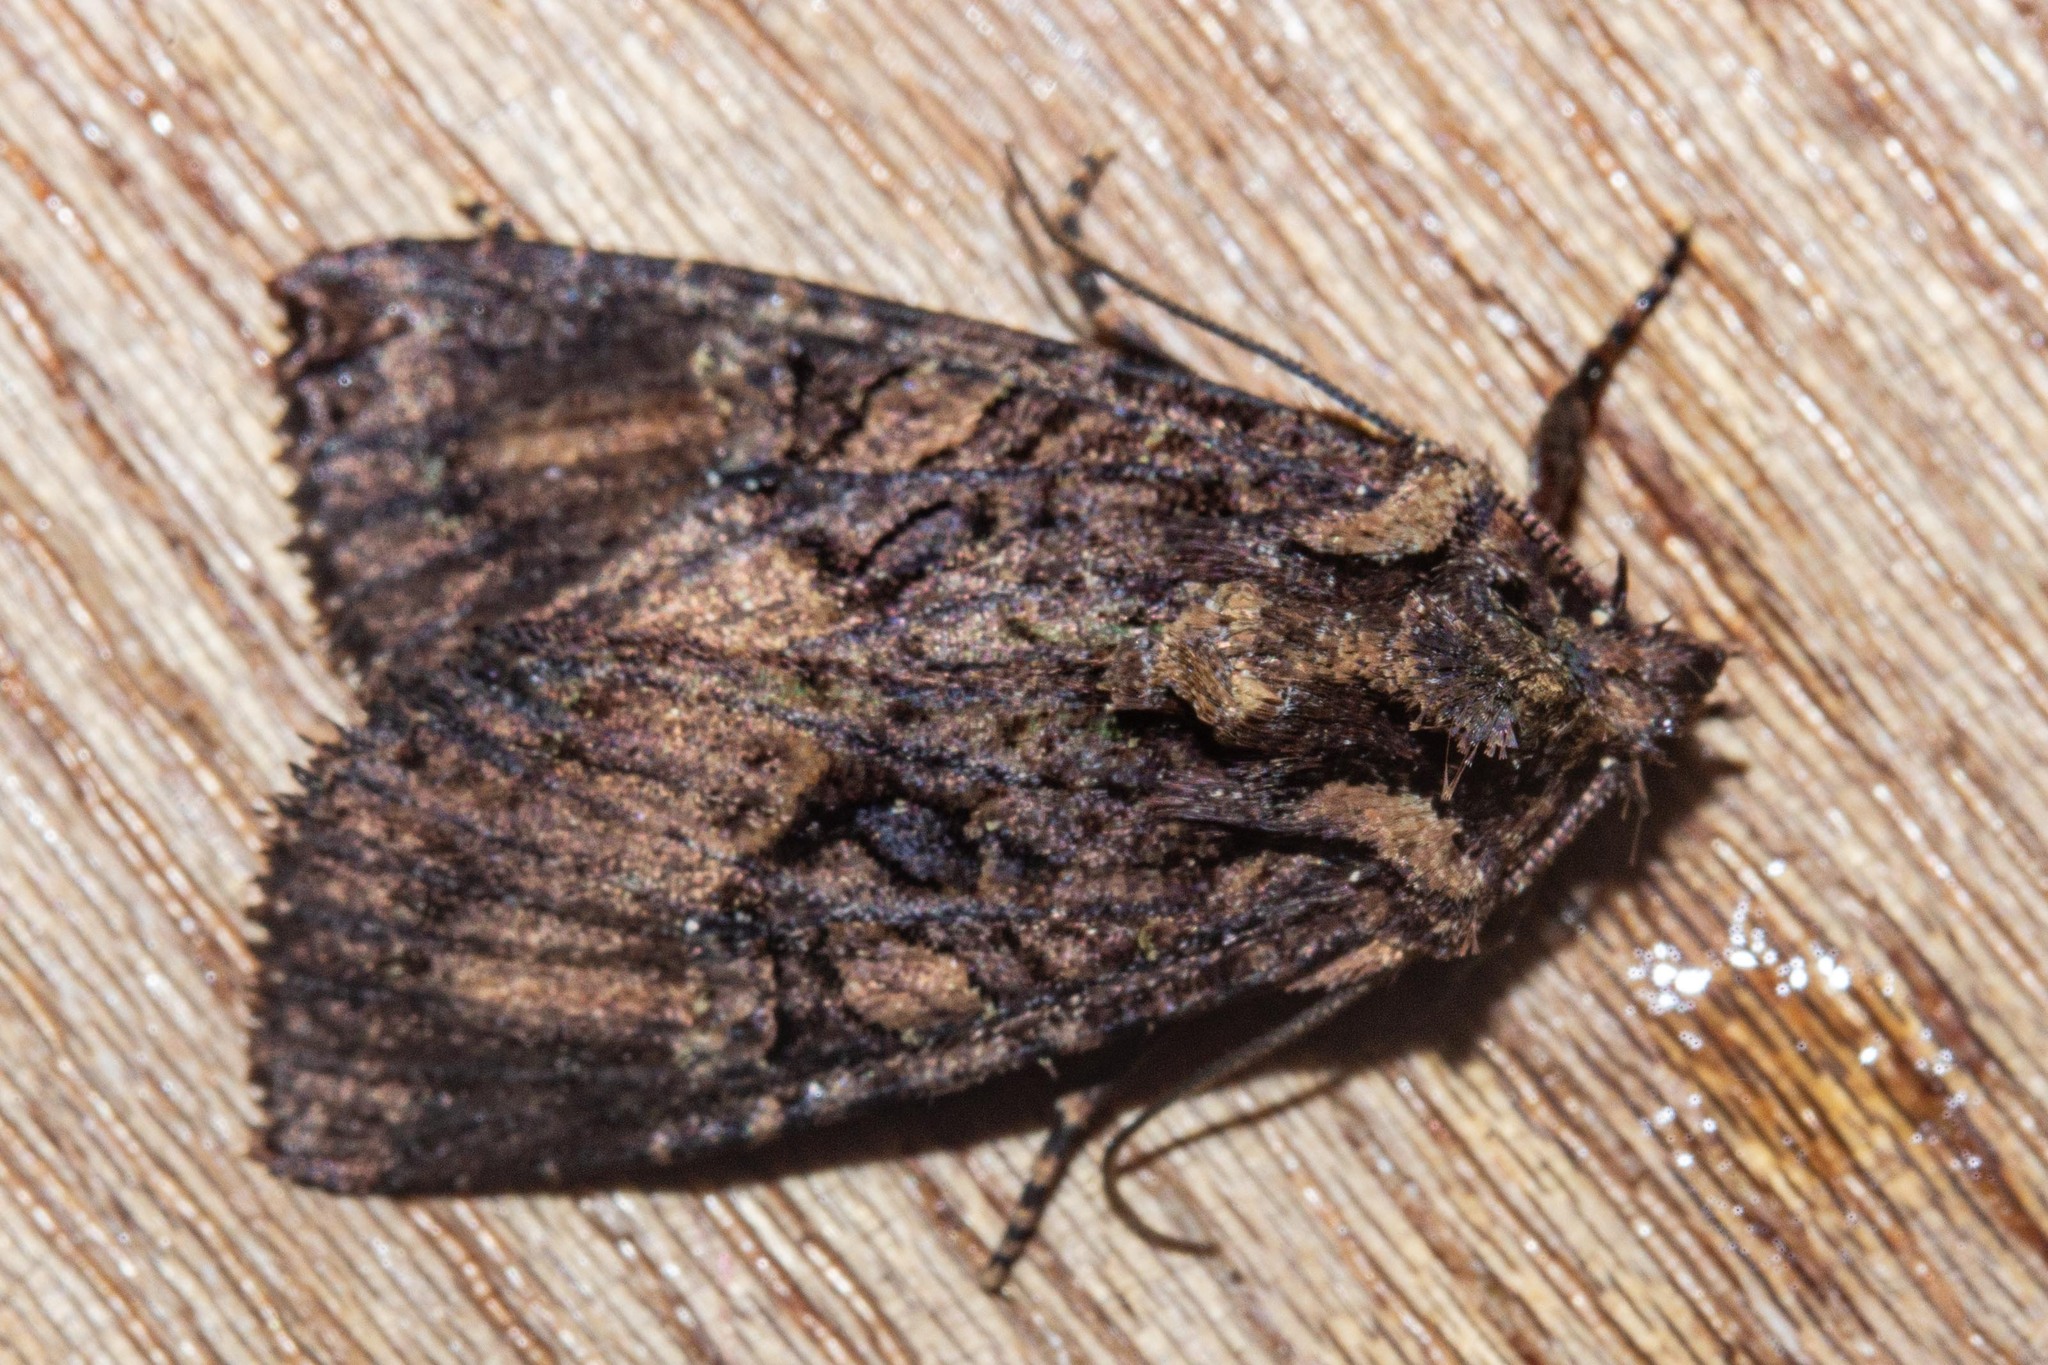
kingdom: Animalia
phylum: Arthropoda
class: Insecta
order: Lepidoptera
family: Noctuidae
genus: Meterana
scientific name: Meterana ochthistis
